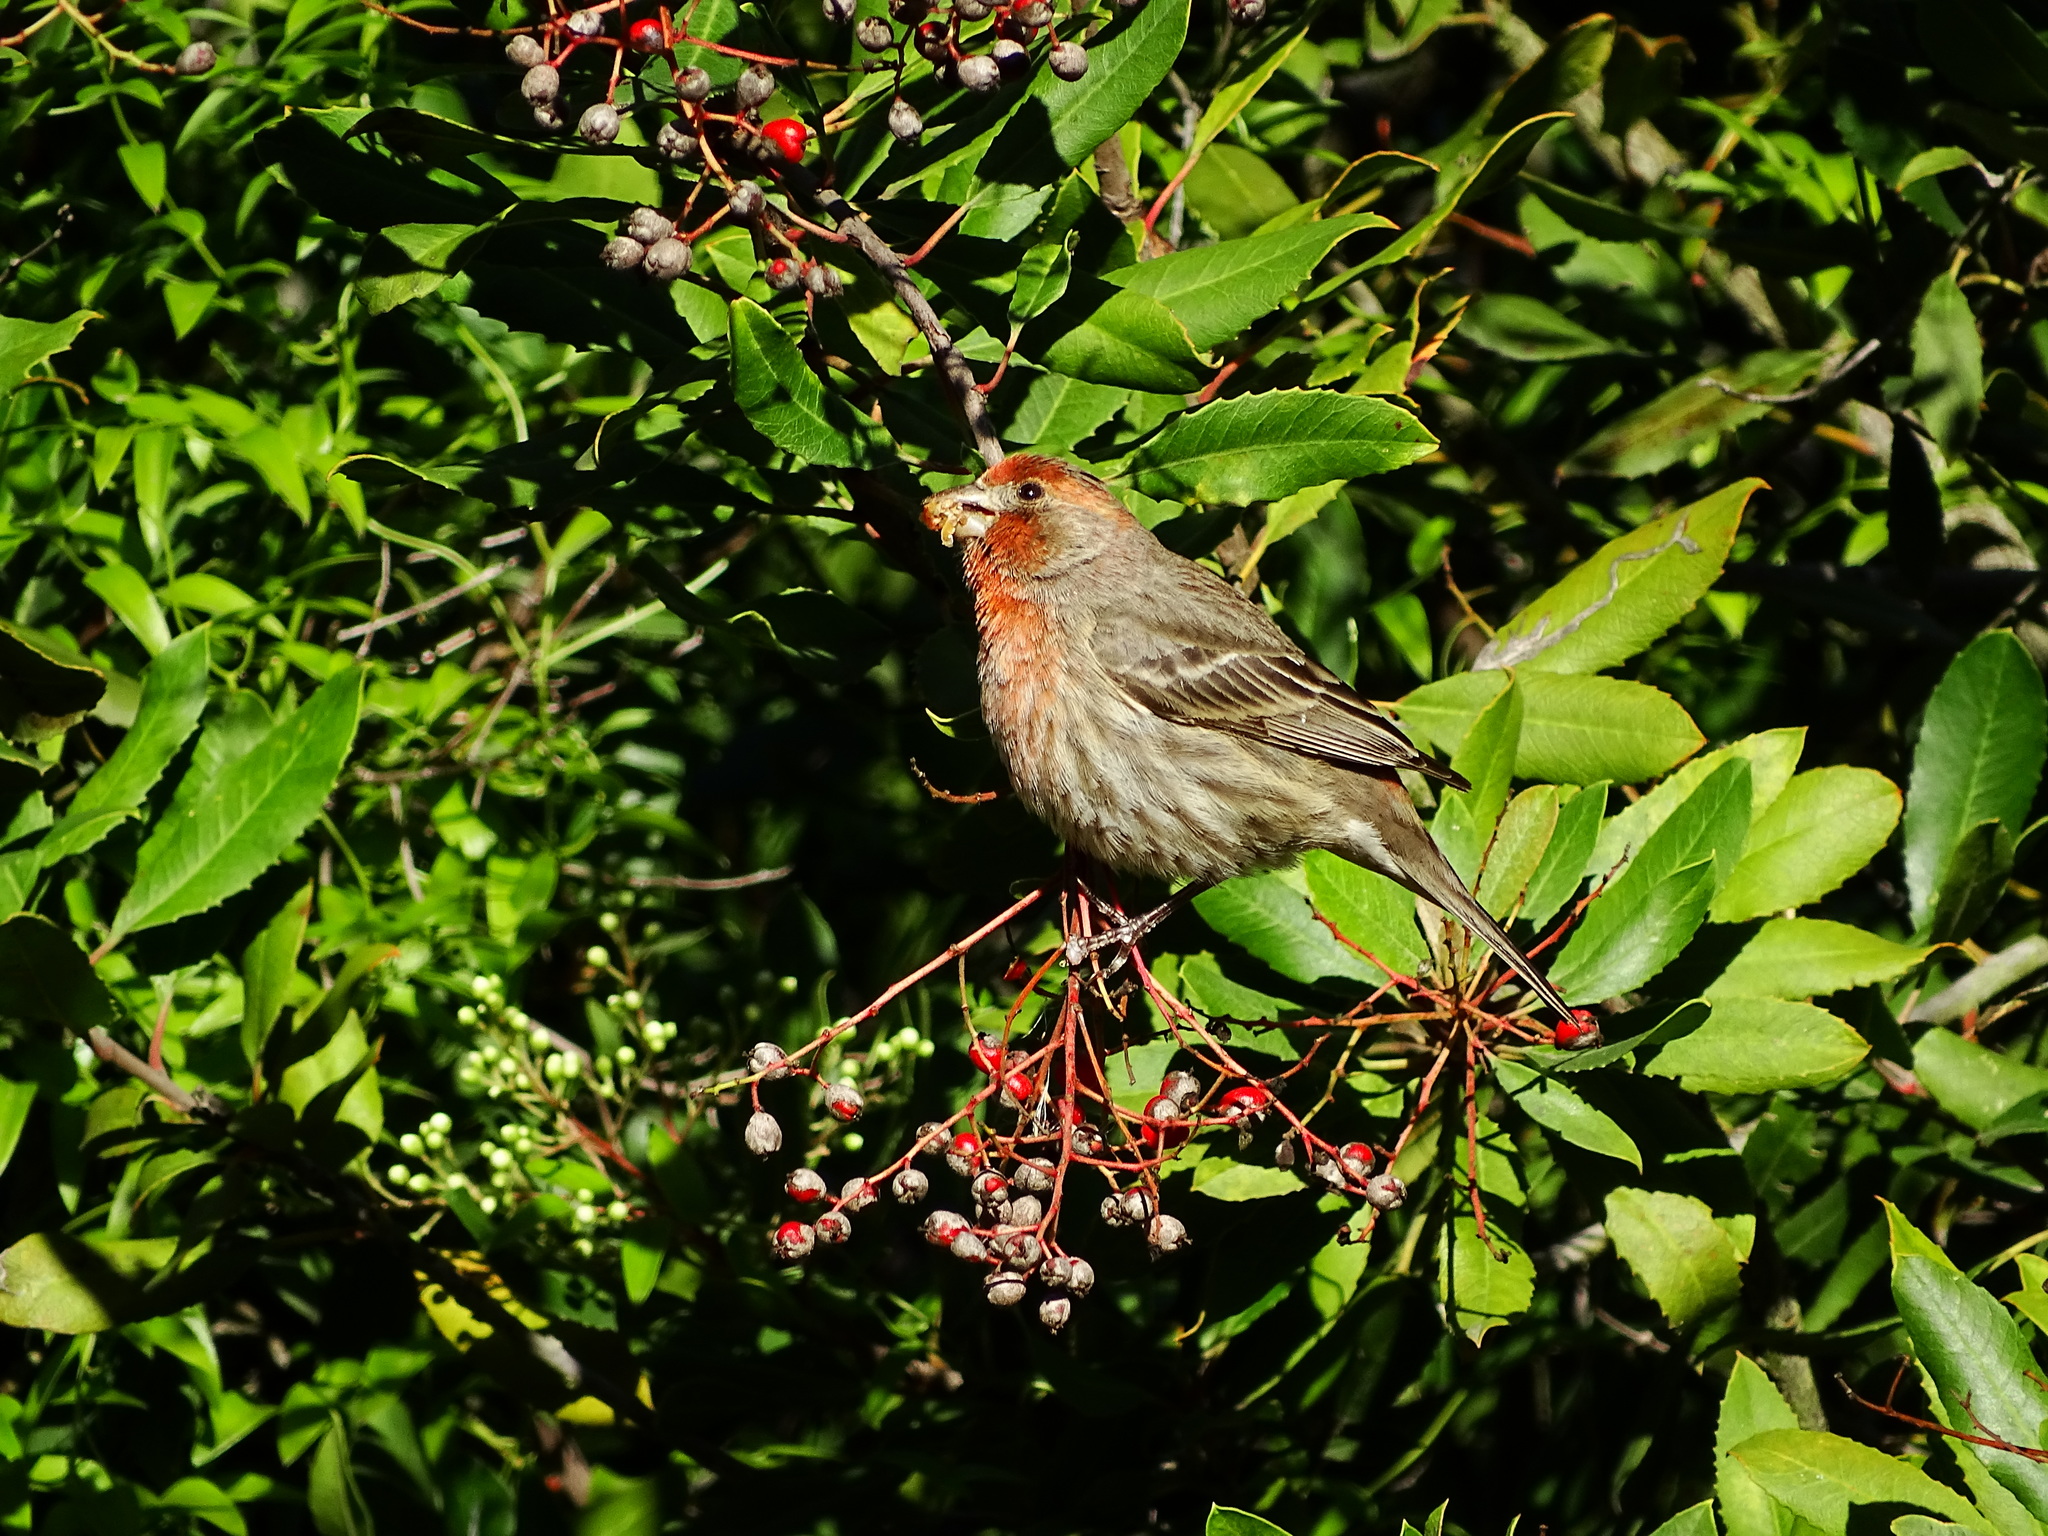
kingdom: Animalia
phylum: Chordata
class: Aves
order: Passeriformes
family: Fringillidae
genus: Haemorhous
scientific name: Haemorhous mexicanus
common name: House finch
